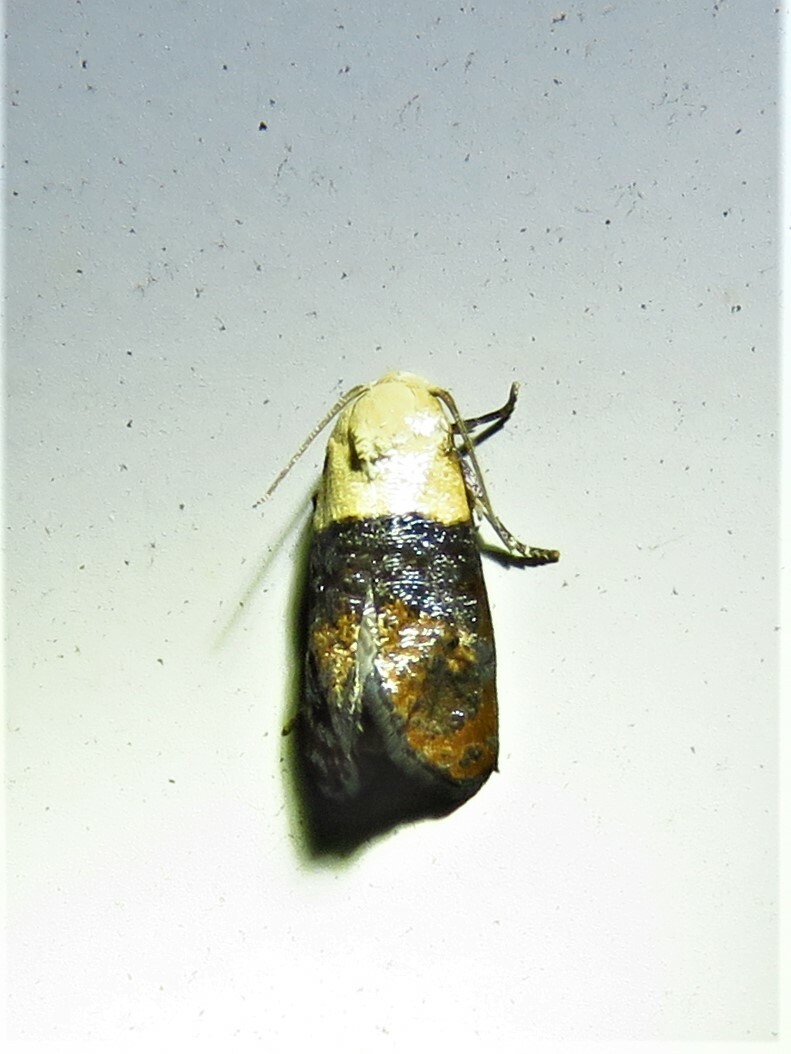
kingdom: Animalia
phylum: Arthropoda
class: Insecta
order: Lepidoptera
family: Tortricidae
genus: Eugnosta
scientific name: Eugnosta erigeronana
